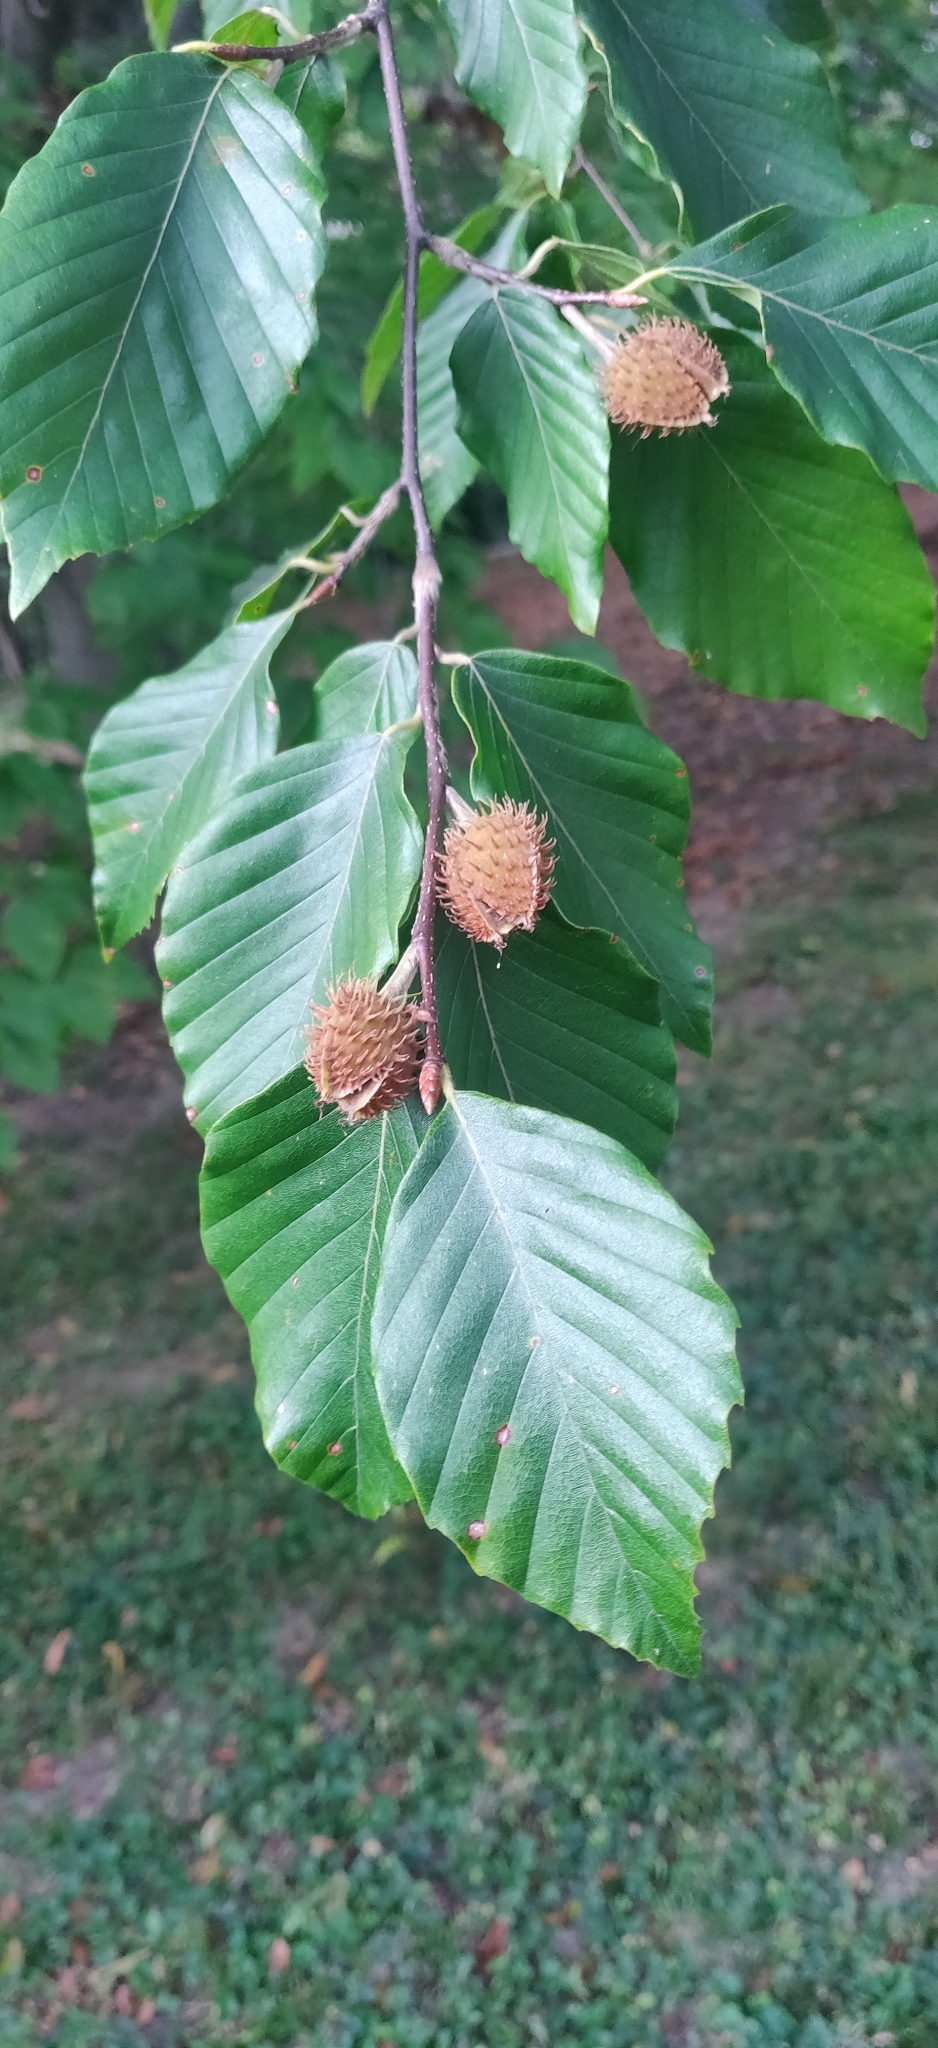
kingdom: Plantae
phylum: Tracheophyta
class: Magnoliopsida
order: Fagales
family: Fagaceae
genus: Fagus
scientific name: Fagus grandifolia
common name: American beech
